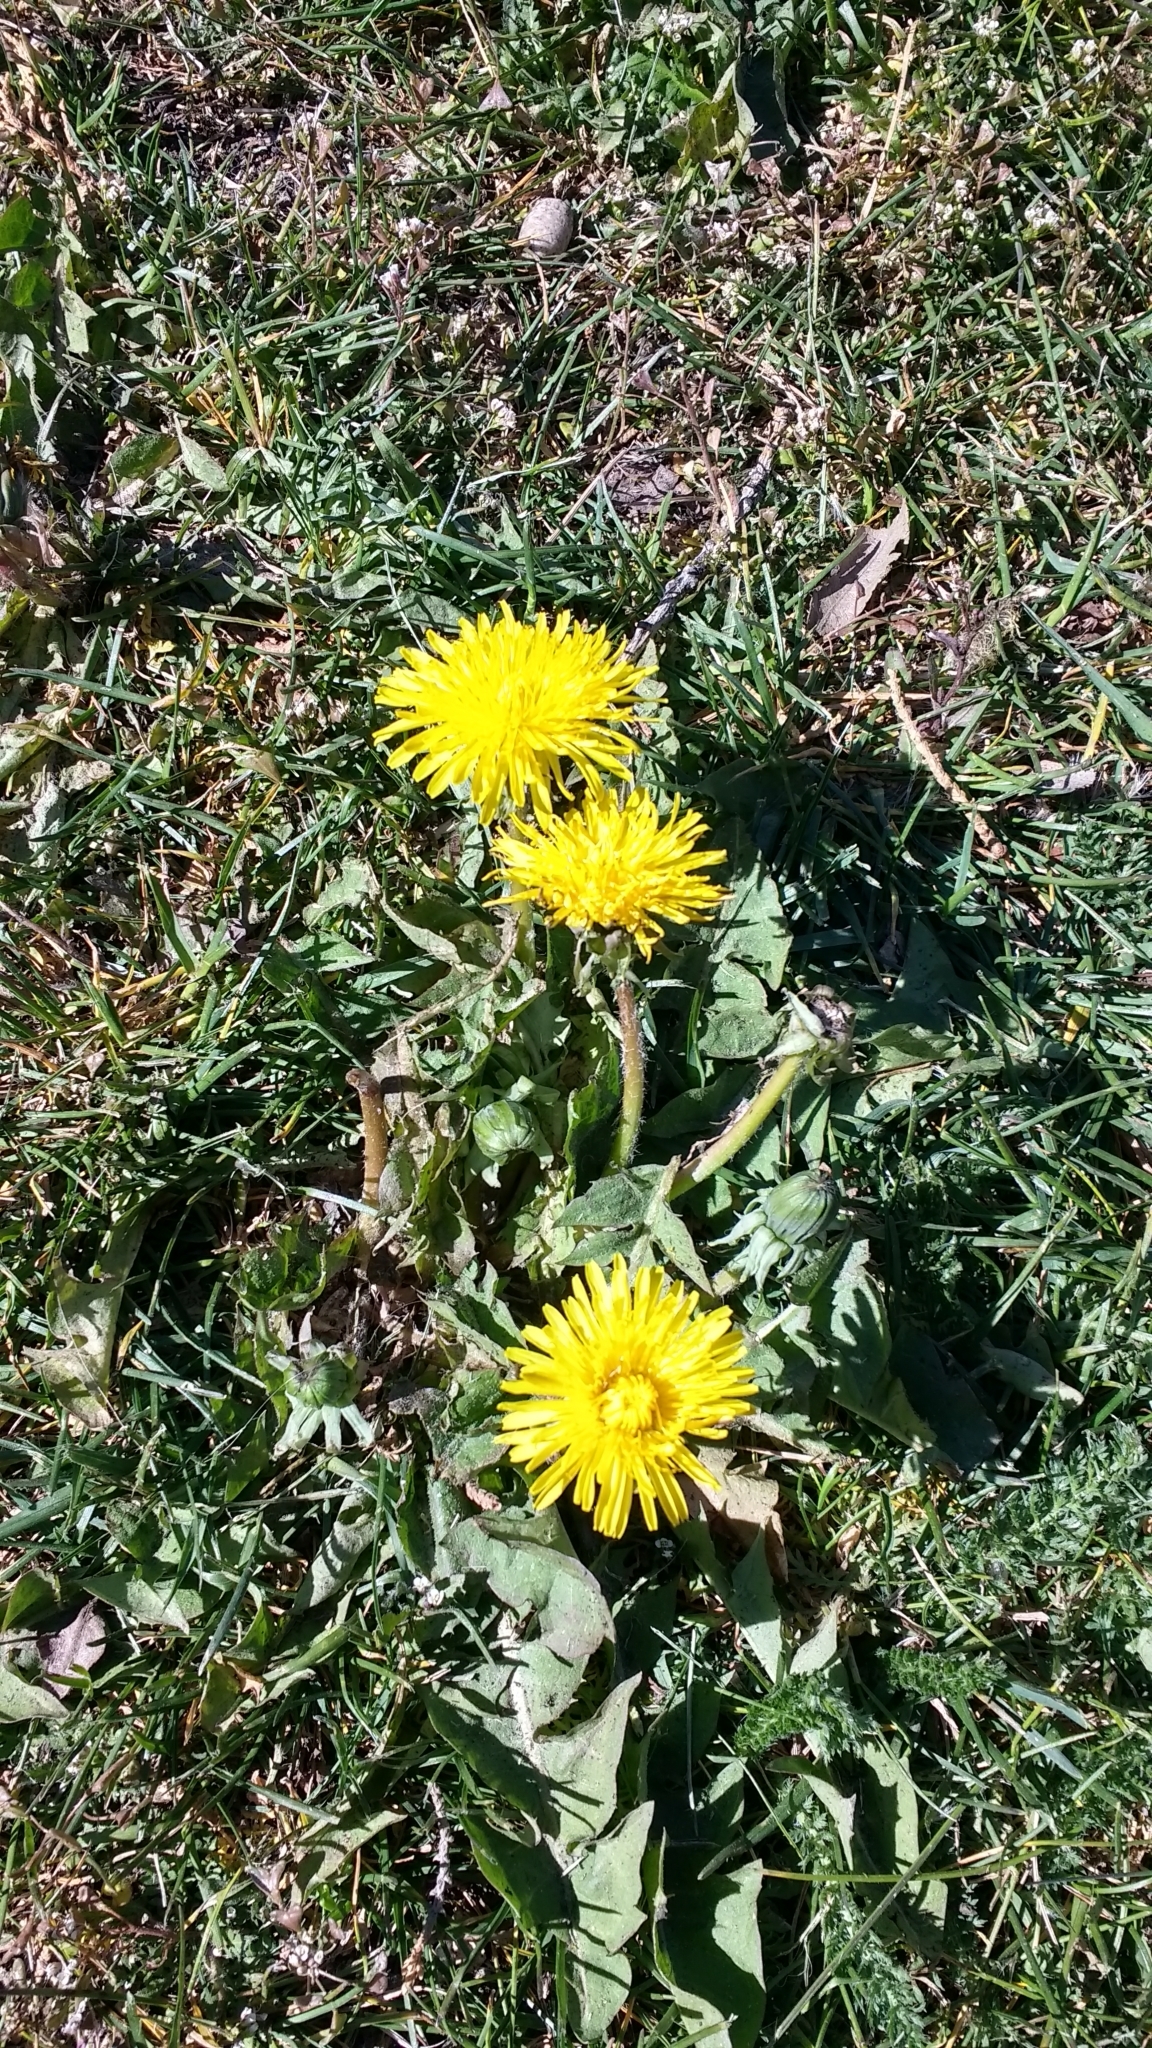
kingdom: Plantae
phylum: Tracheophyta
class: Magnoliopsida
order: Asterales
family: Asteraceae
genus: Taraxacum
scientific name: Taraxacum officinale
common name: Common dandelion
